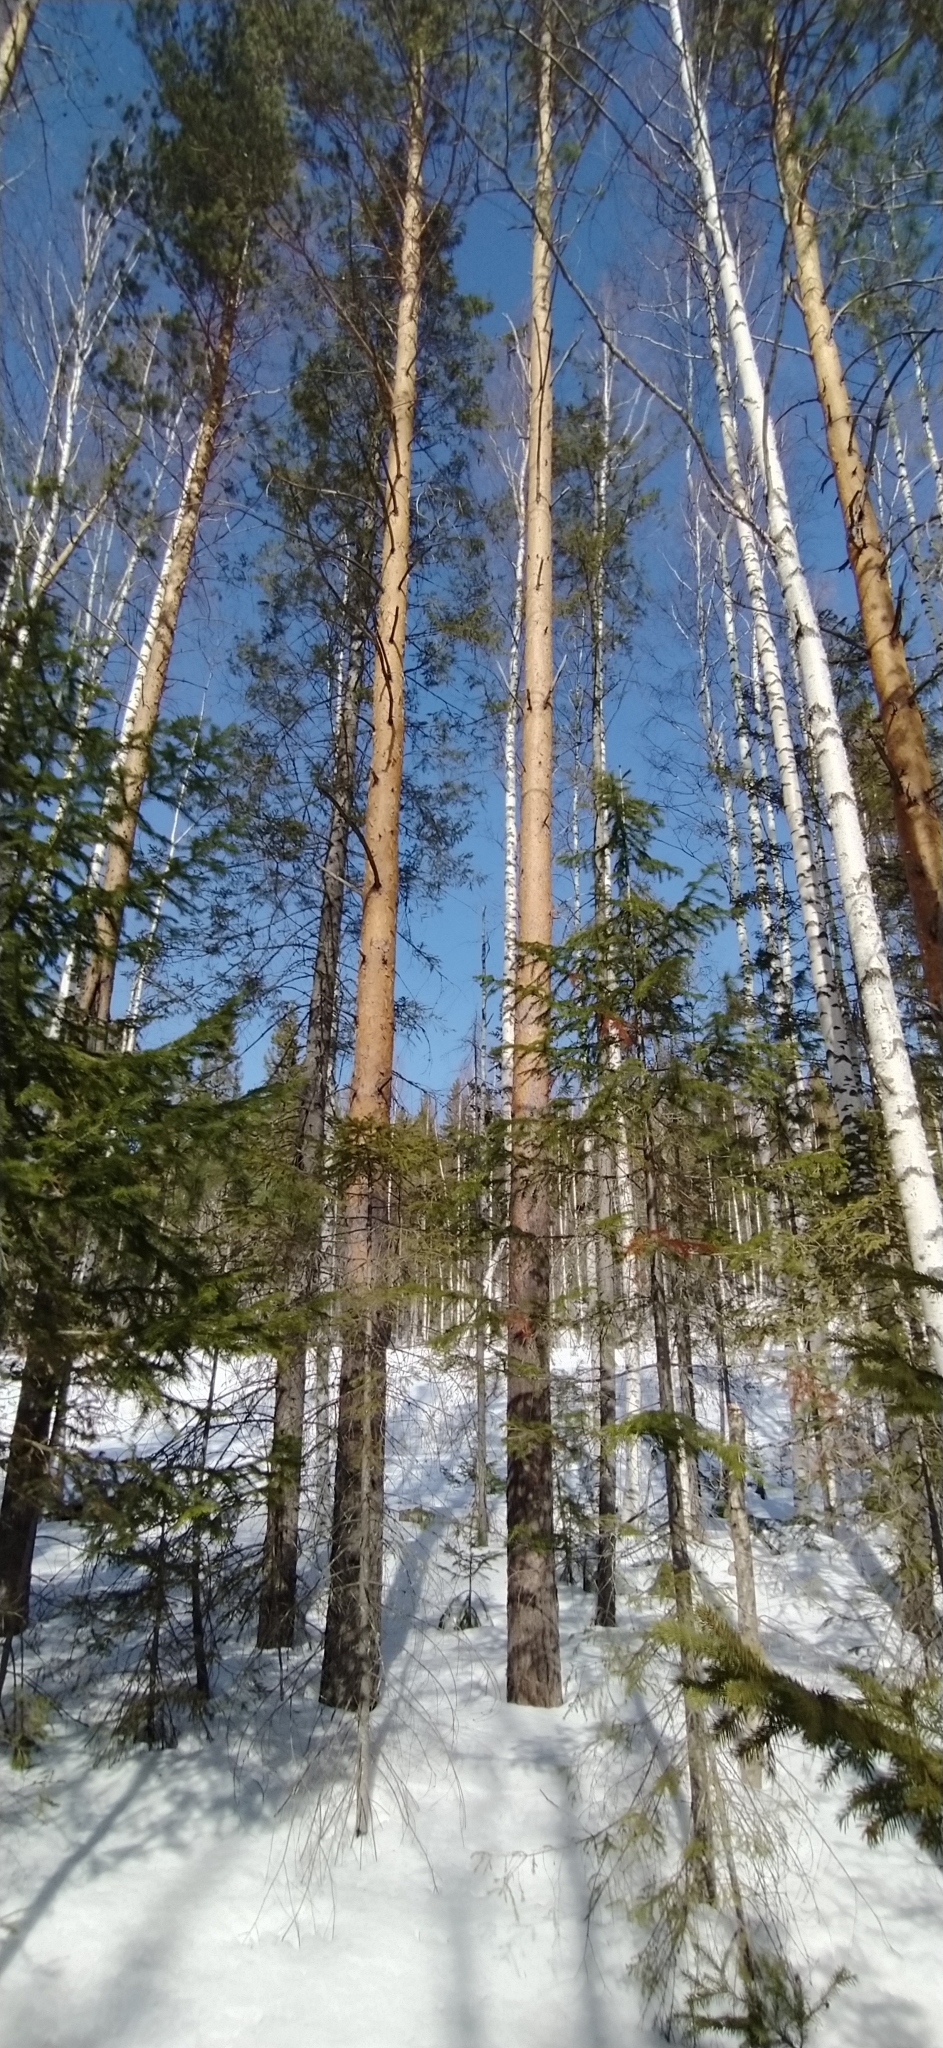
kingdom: Plantae
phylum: Tracheophyta
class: Pinopsida
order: Pinales
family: Pinaceae
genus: Pinus
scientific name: Pinus sylvestris
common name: Scots pine
